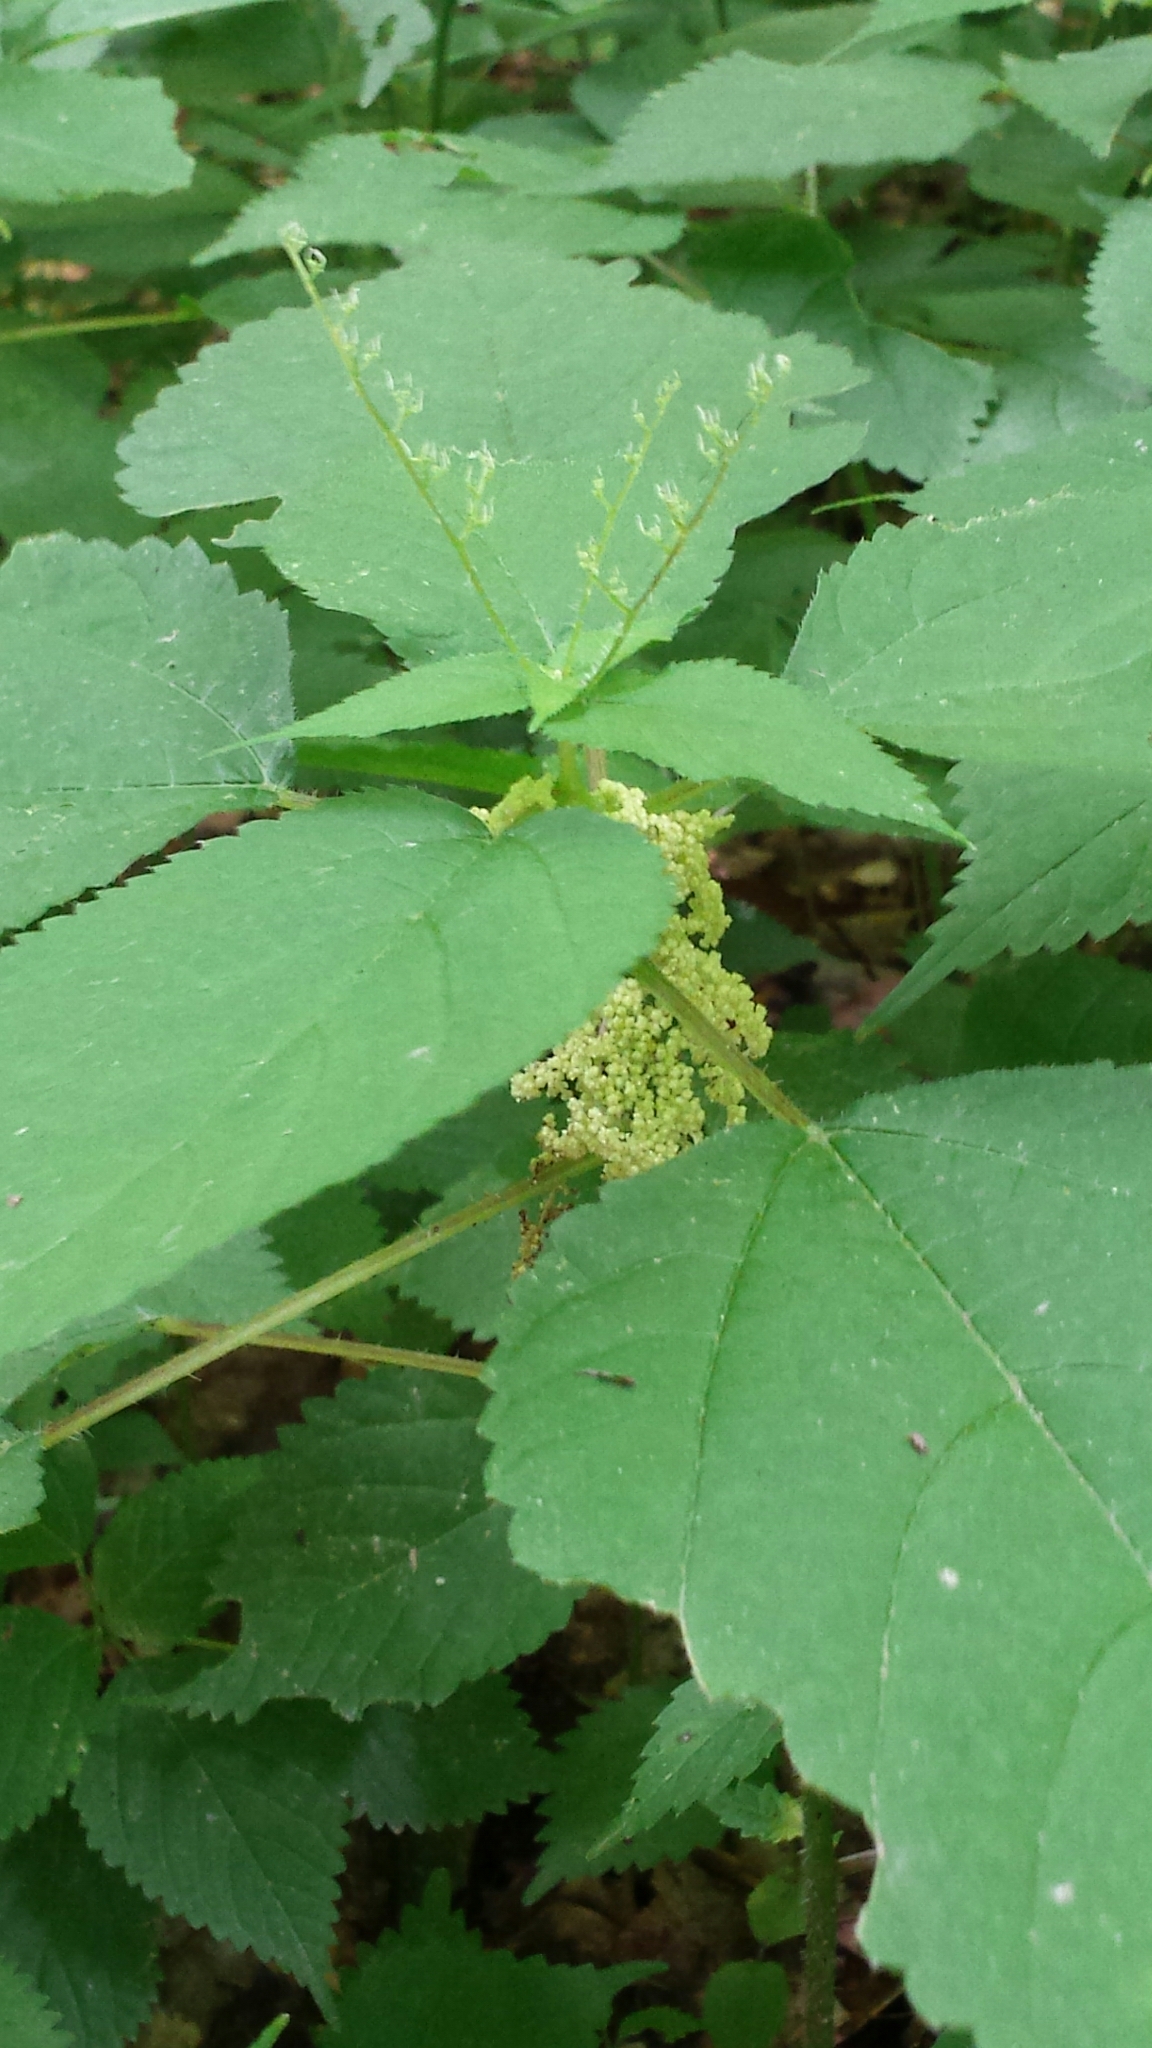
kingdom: Plantae
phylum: Tracheophyta
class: Magnoliopsida
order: Rosales
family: Urticaceae
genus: Laportea
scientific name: Laportea canadensis
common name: Canada nettle
